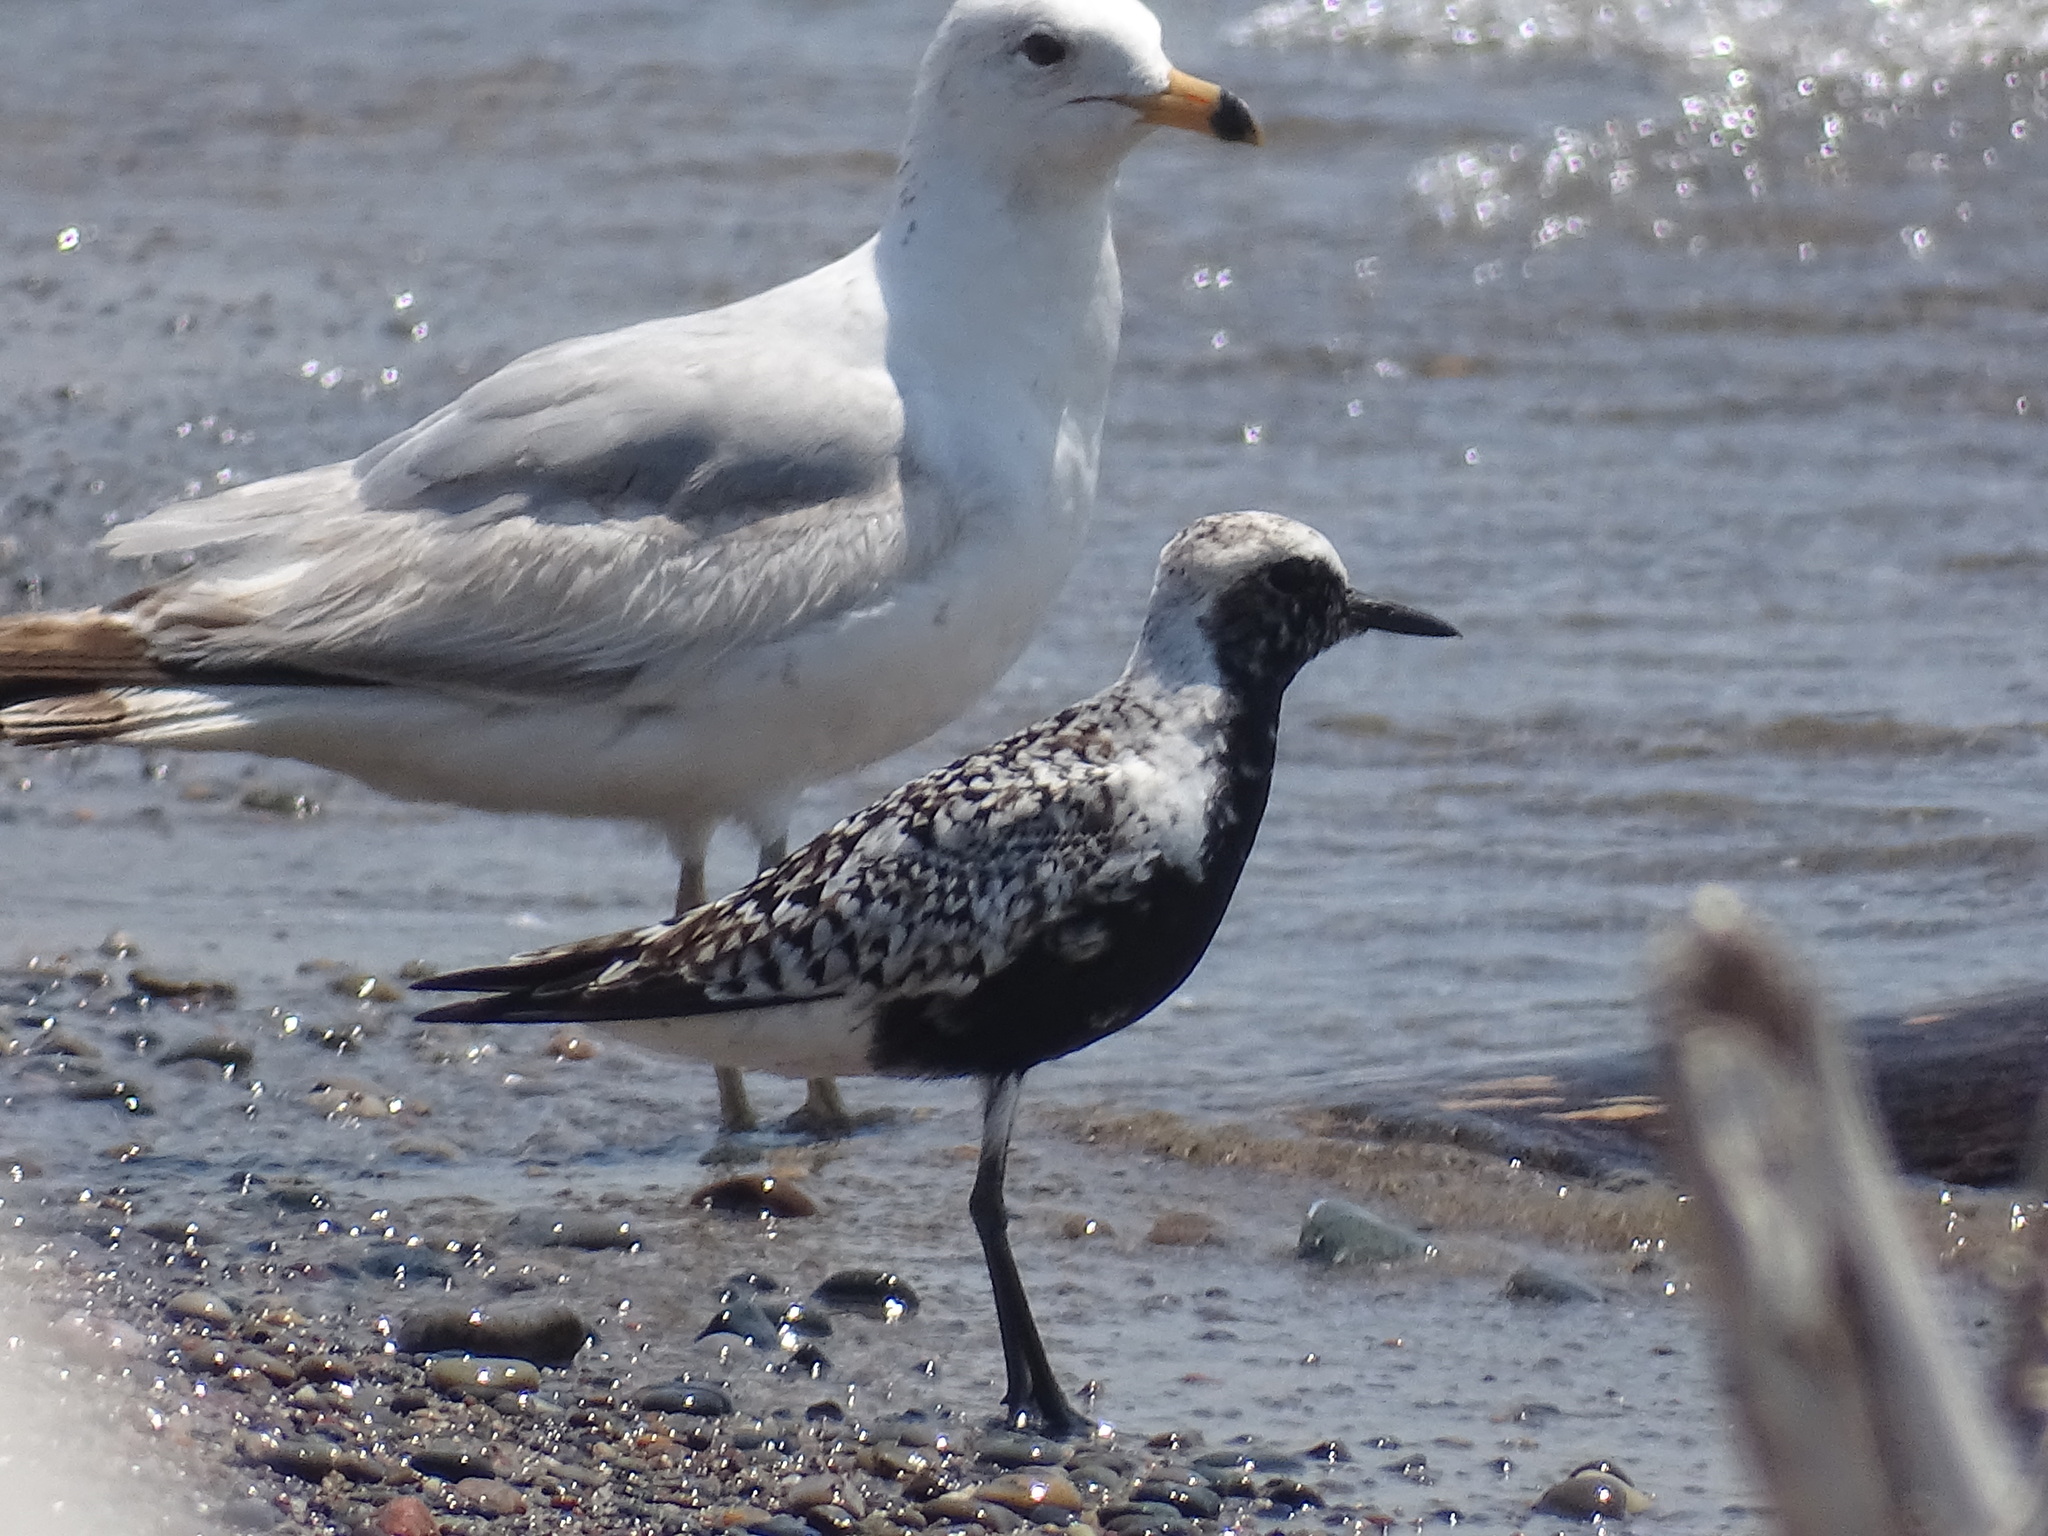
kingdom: Animalia
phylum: Chordata
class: Aves
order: Charadriiformes
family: Charadriidae
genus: Pluvialis
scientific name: Pluvialis squatarola
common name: Grey plover
